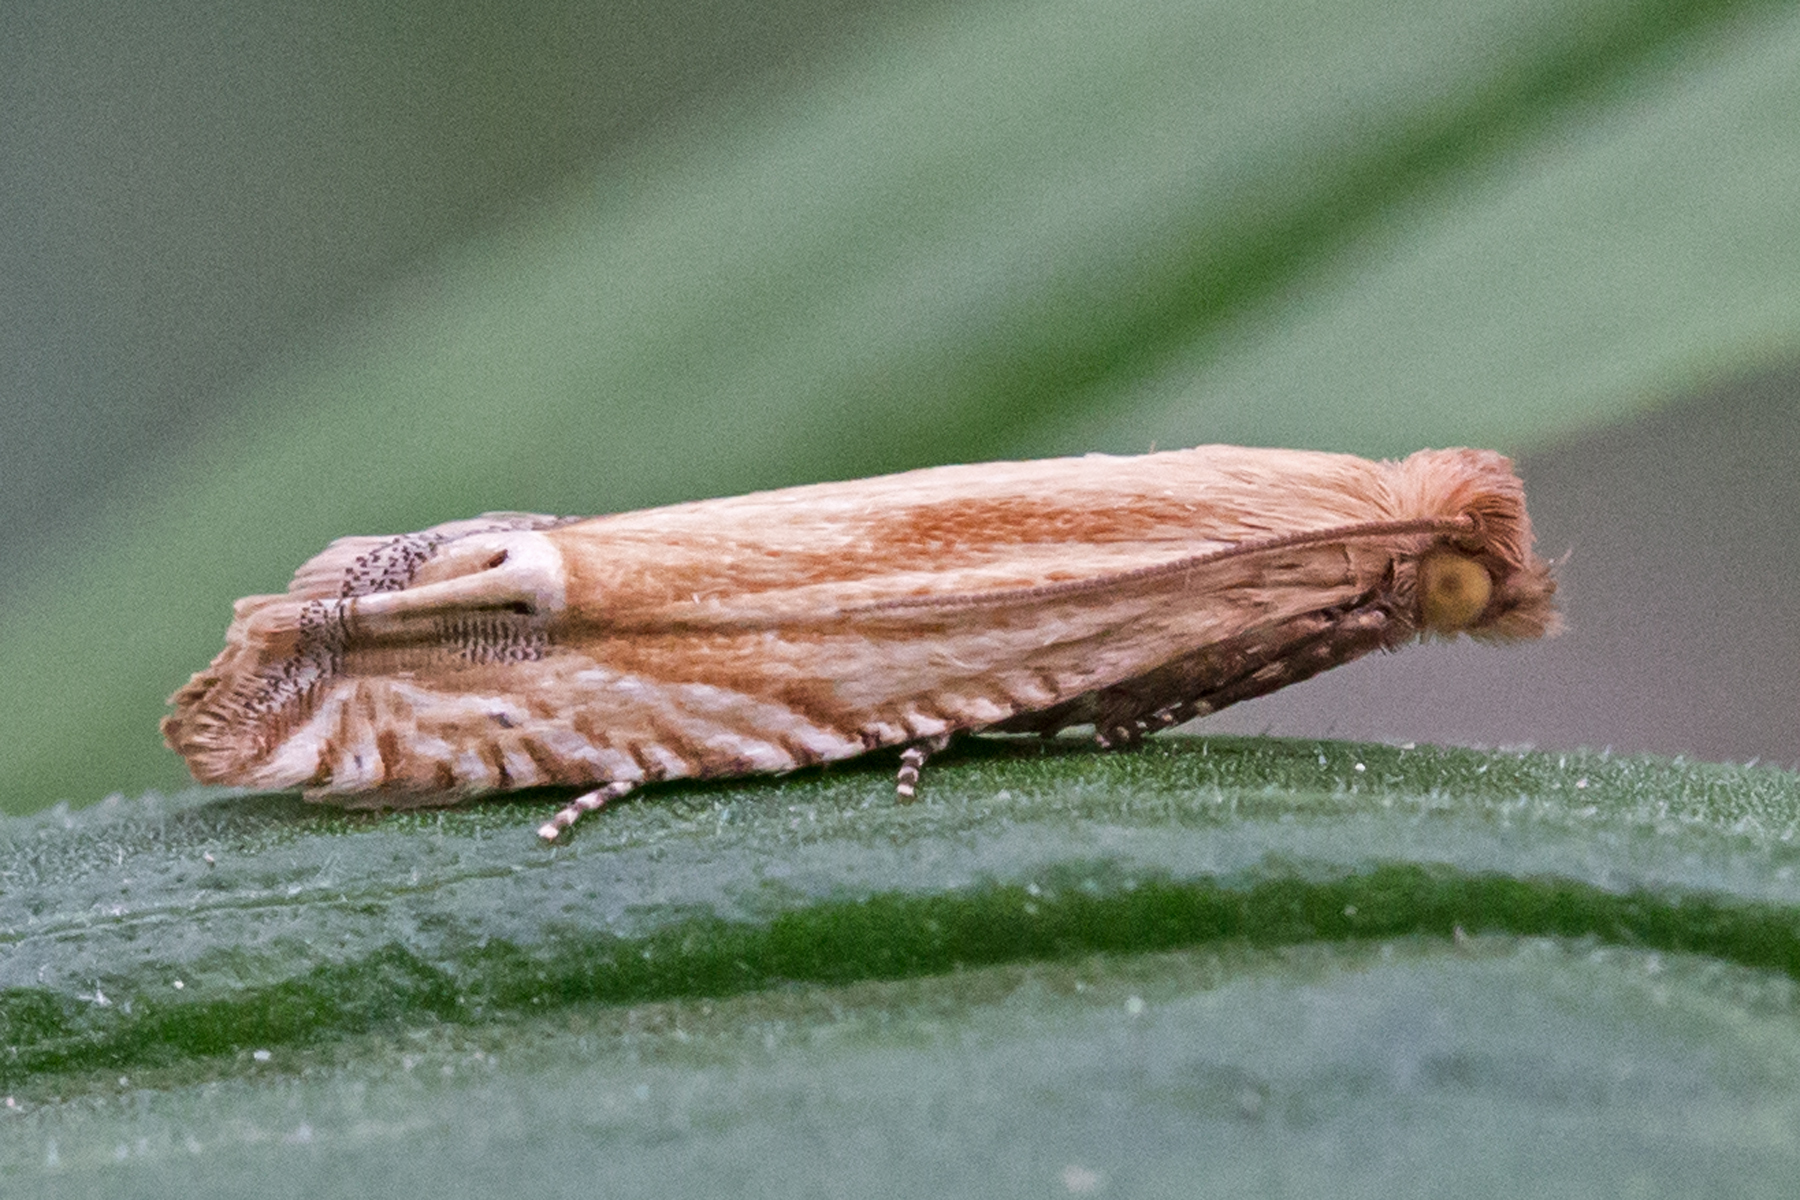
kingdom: Animalia
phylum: Arthropoda
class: Insecta
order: Lepidoptera
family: Tortricidae
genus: Pelochrista
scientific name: Pelochrista cataclystiana
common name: Goldenrod pelochrista moth
